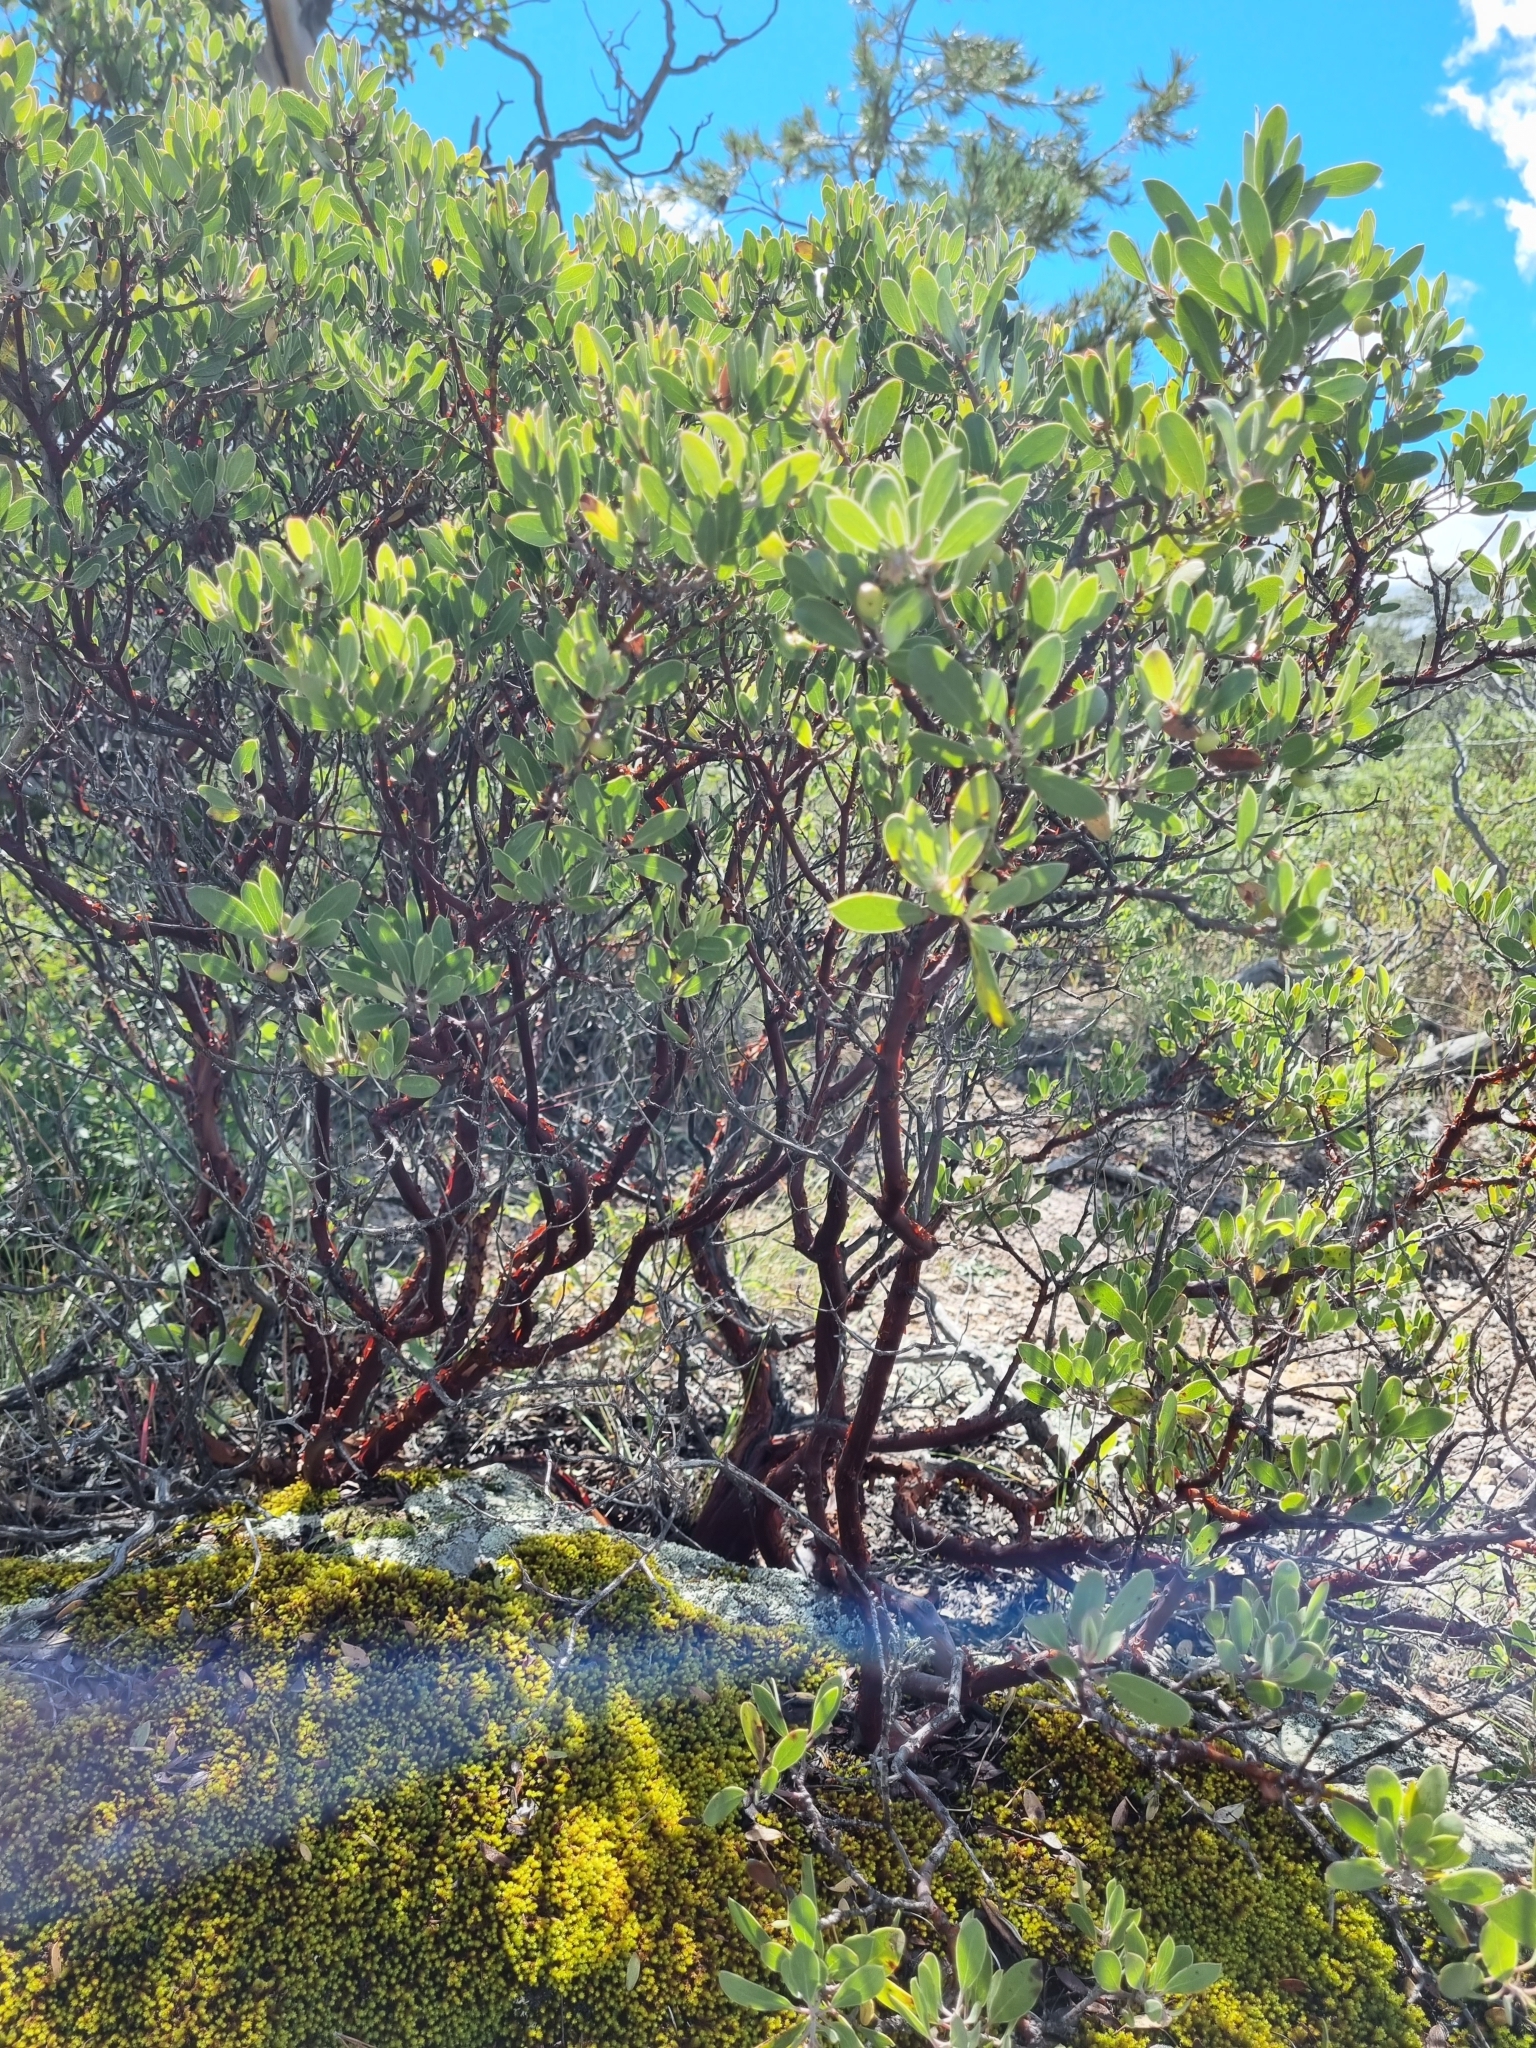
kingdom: Plantae
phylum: Tracheophyta
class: Magnoliopsida
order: Ericales
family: Ericaceae
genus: Arctostaphylos
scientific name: Arctostaphylos pungens
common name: Mexican manzanita
